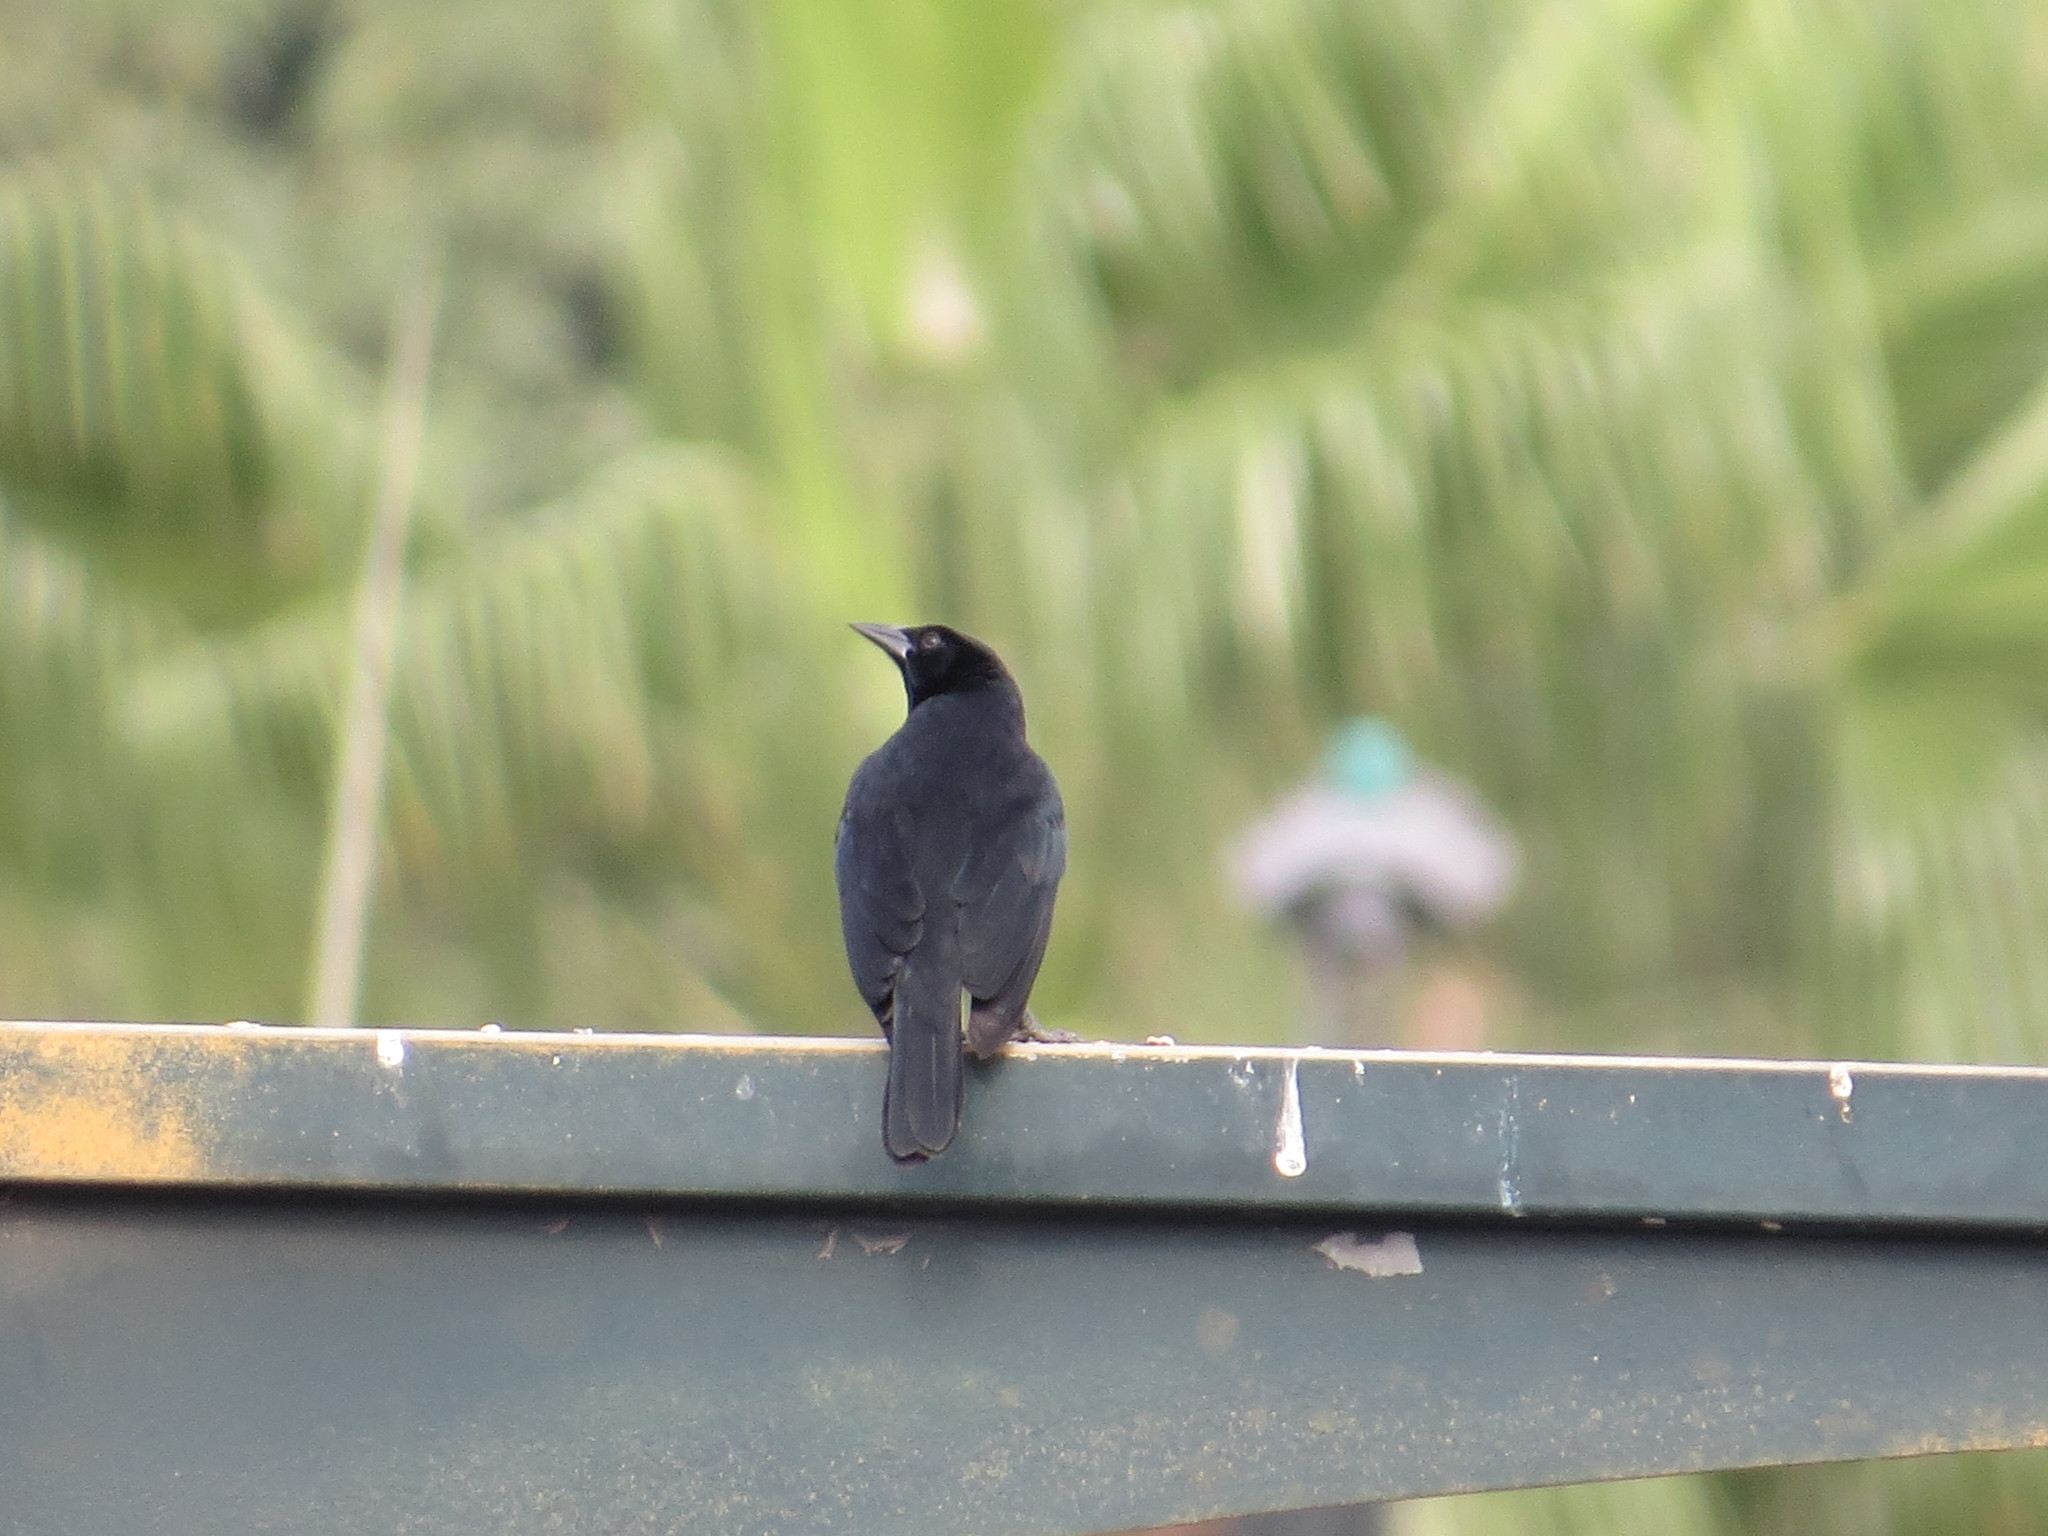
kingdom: Animalia
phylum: Chordata
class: Aves
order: Passeriformes
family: Icteridae
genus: Dives
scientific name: Dives warczewiczi
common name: Scrub blackbird
